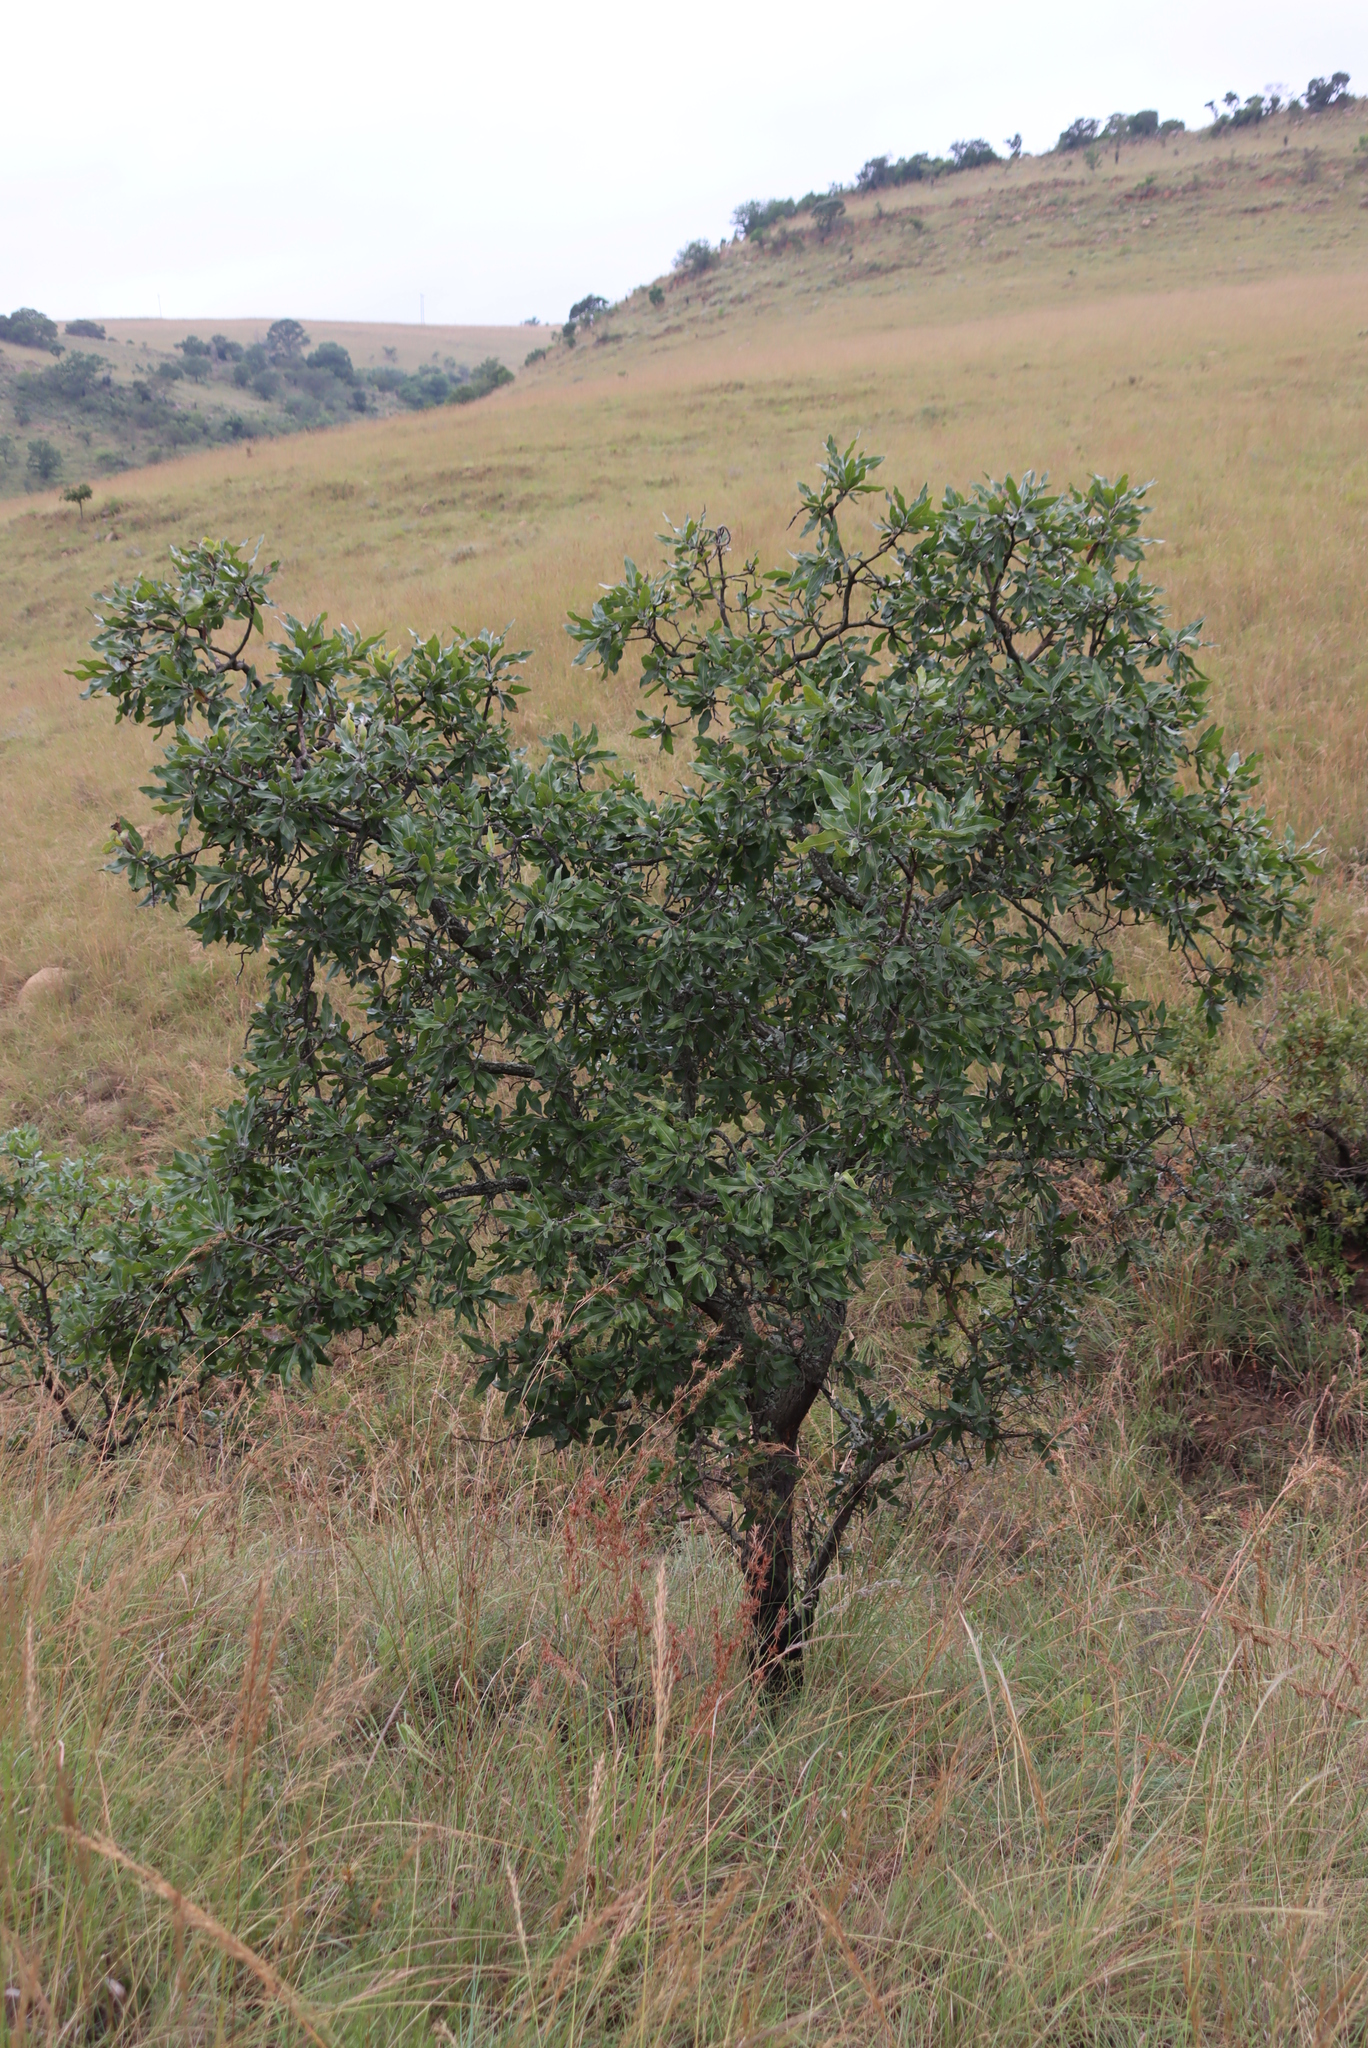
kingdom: Plantae
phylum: Tracheophyta
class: Magnoliopsida
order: Proteales
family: Proteaceae
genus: Faurea
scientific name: Faurea rochetiana
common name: Broad-leaved beech
